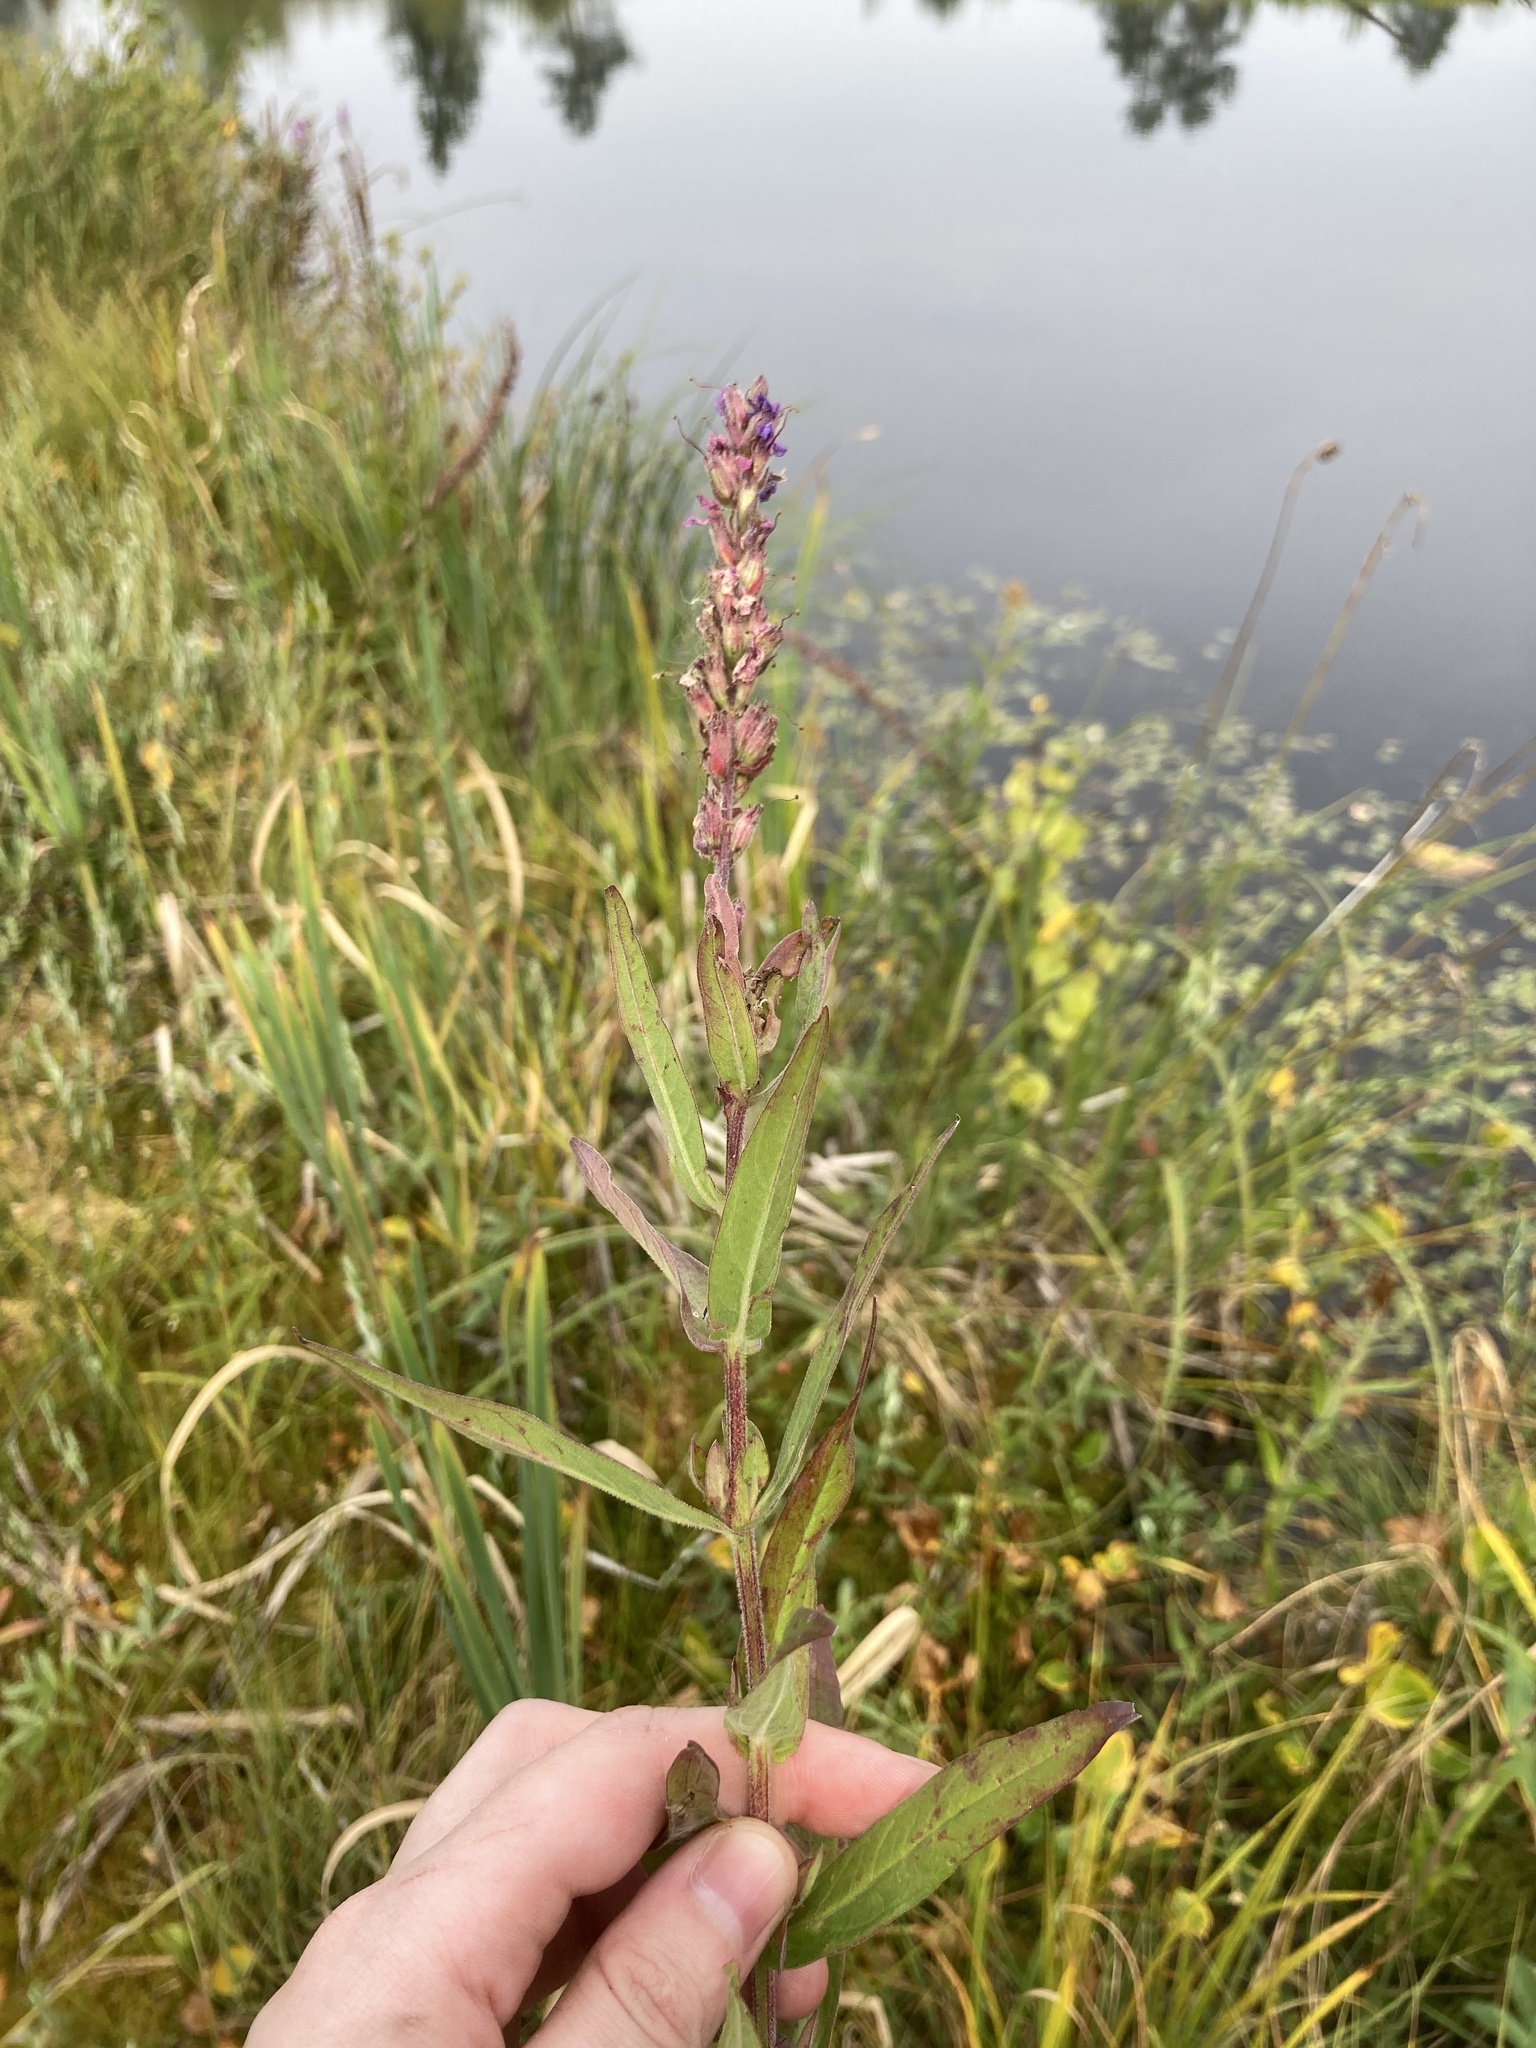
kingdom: Plantae
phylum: Tracheophyta
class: Magnoliopsida
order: Myrtales
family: Lythraceae
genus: Lythrum
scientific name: Lythrum salicaria
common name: Purple loosestrife
